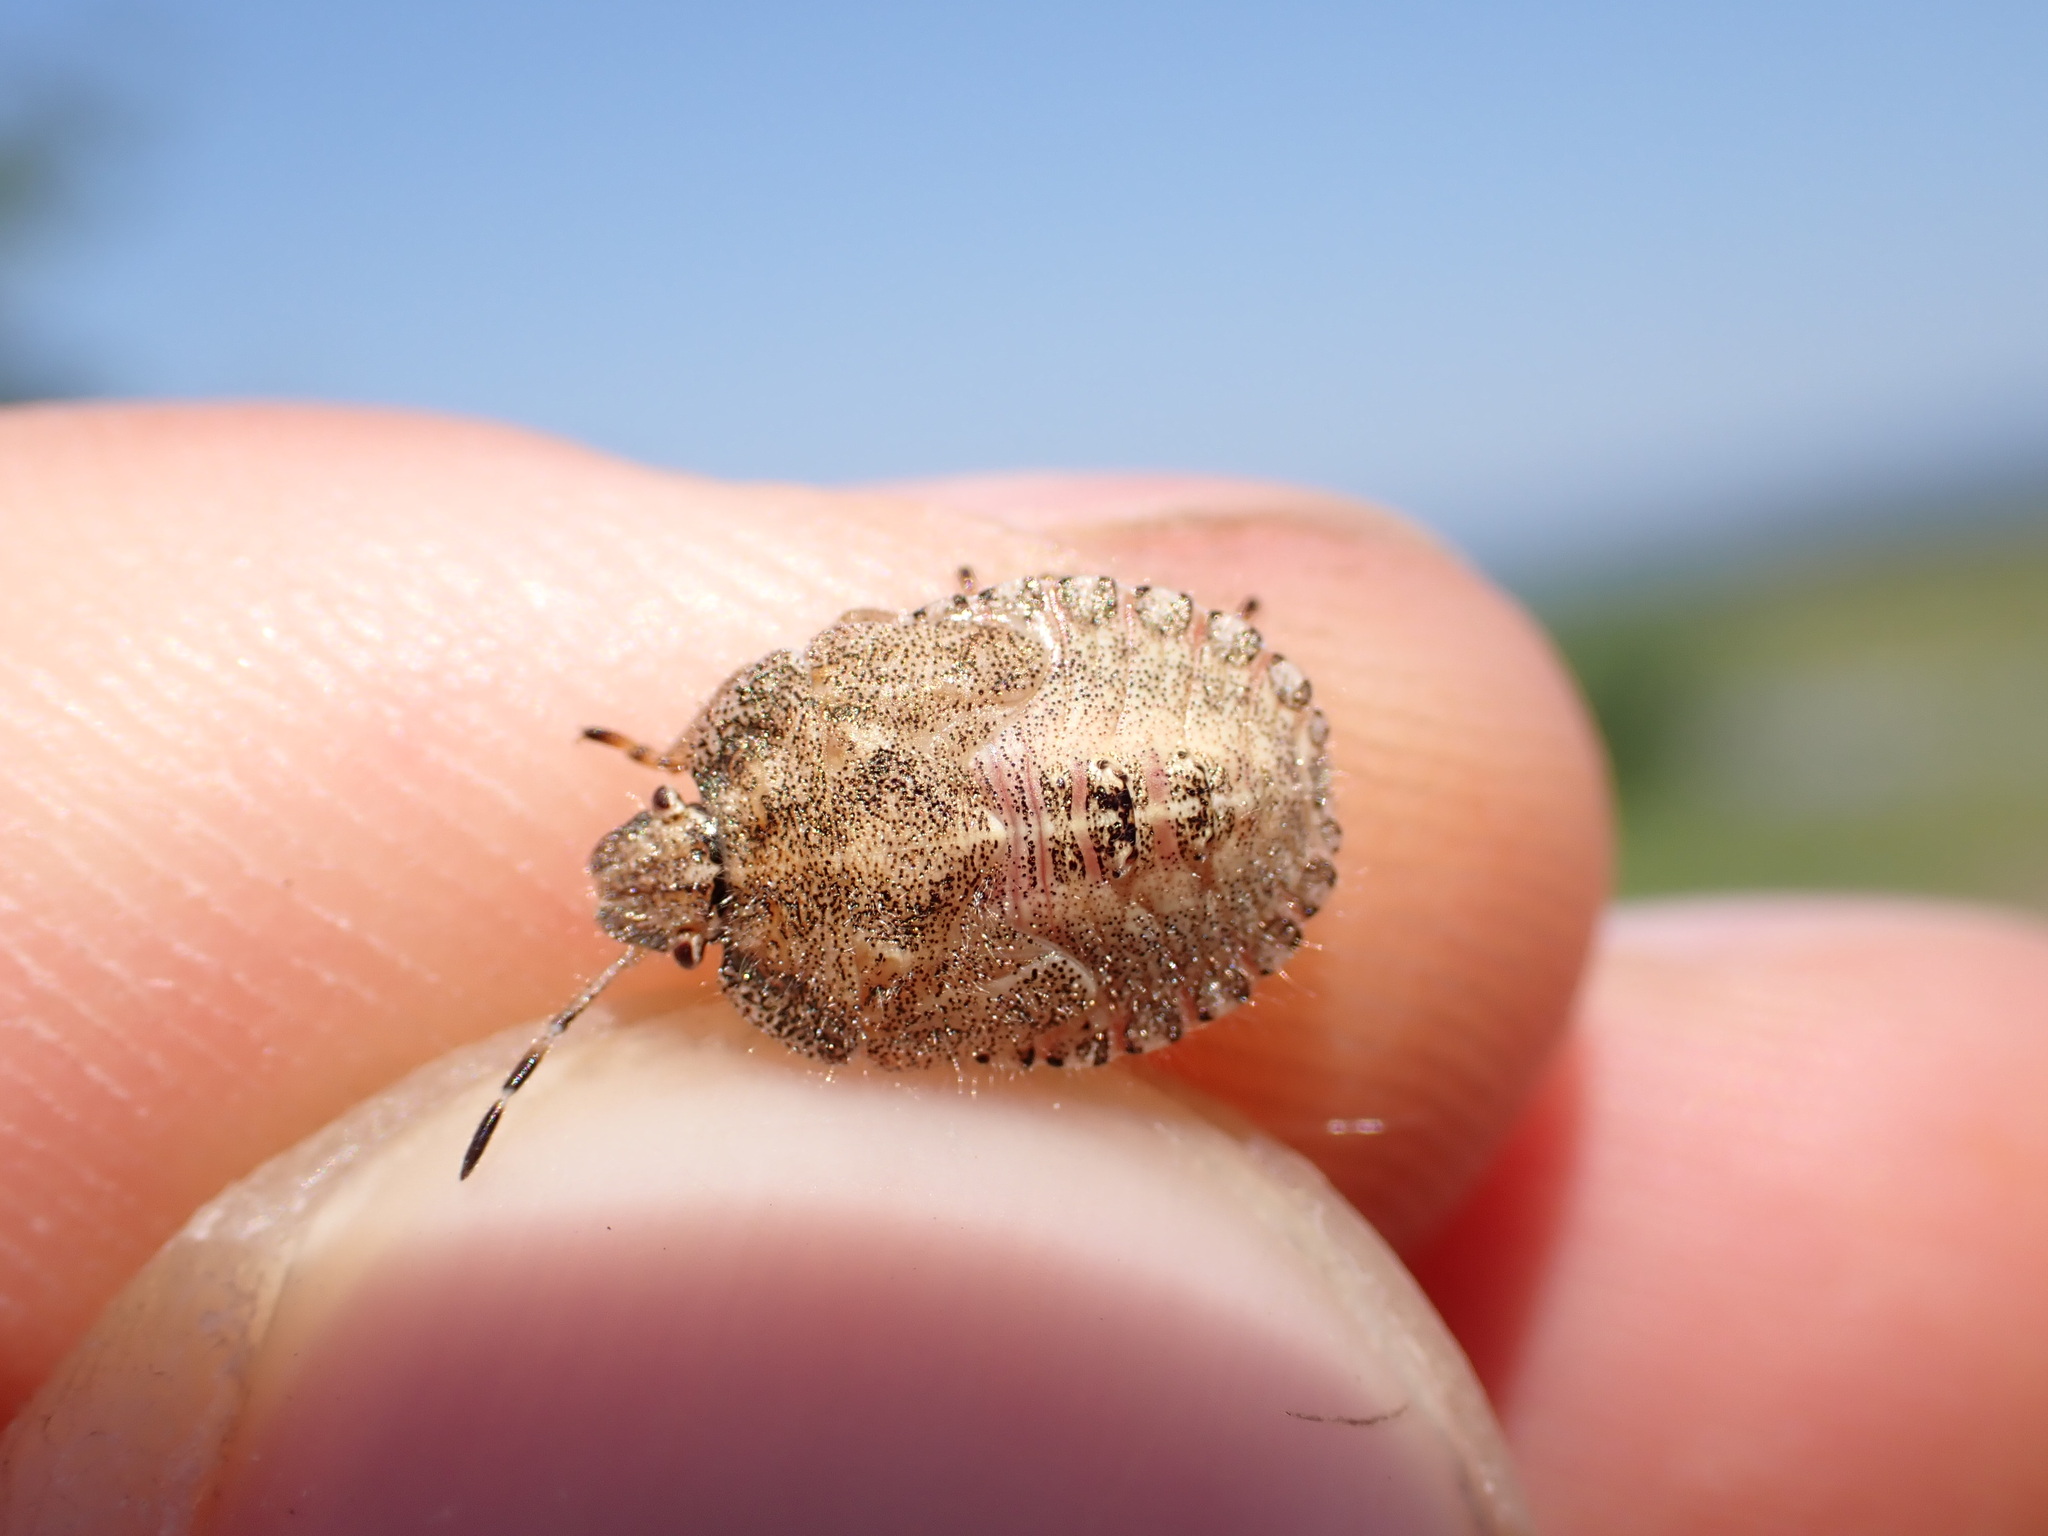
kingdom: Animalia
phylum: Arthropoda
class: Insecta
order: Hemiptera
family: Pentatomidae
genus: Dolycoris
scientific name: Dolycoris baccarum
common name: Sloe bug
